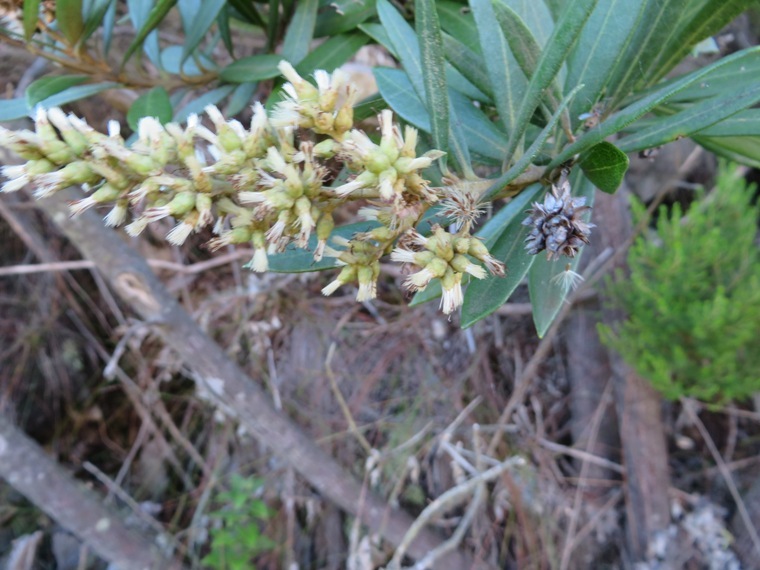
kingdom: Plantae
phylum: Tracheophyta
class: Magnoliopsida
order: Asterales
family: Asteraceae
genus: Brachylaena
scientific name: Brachylaena neriifolia
